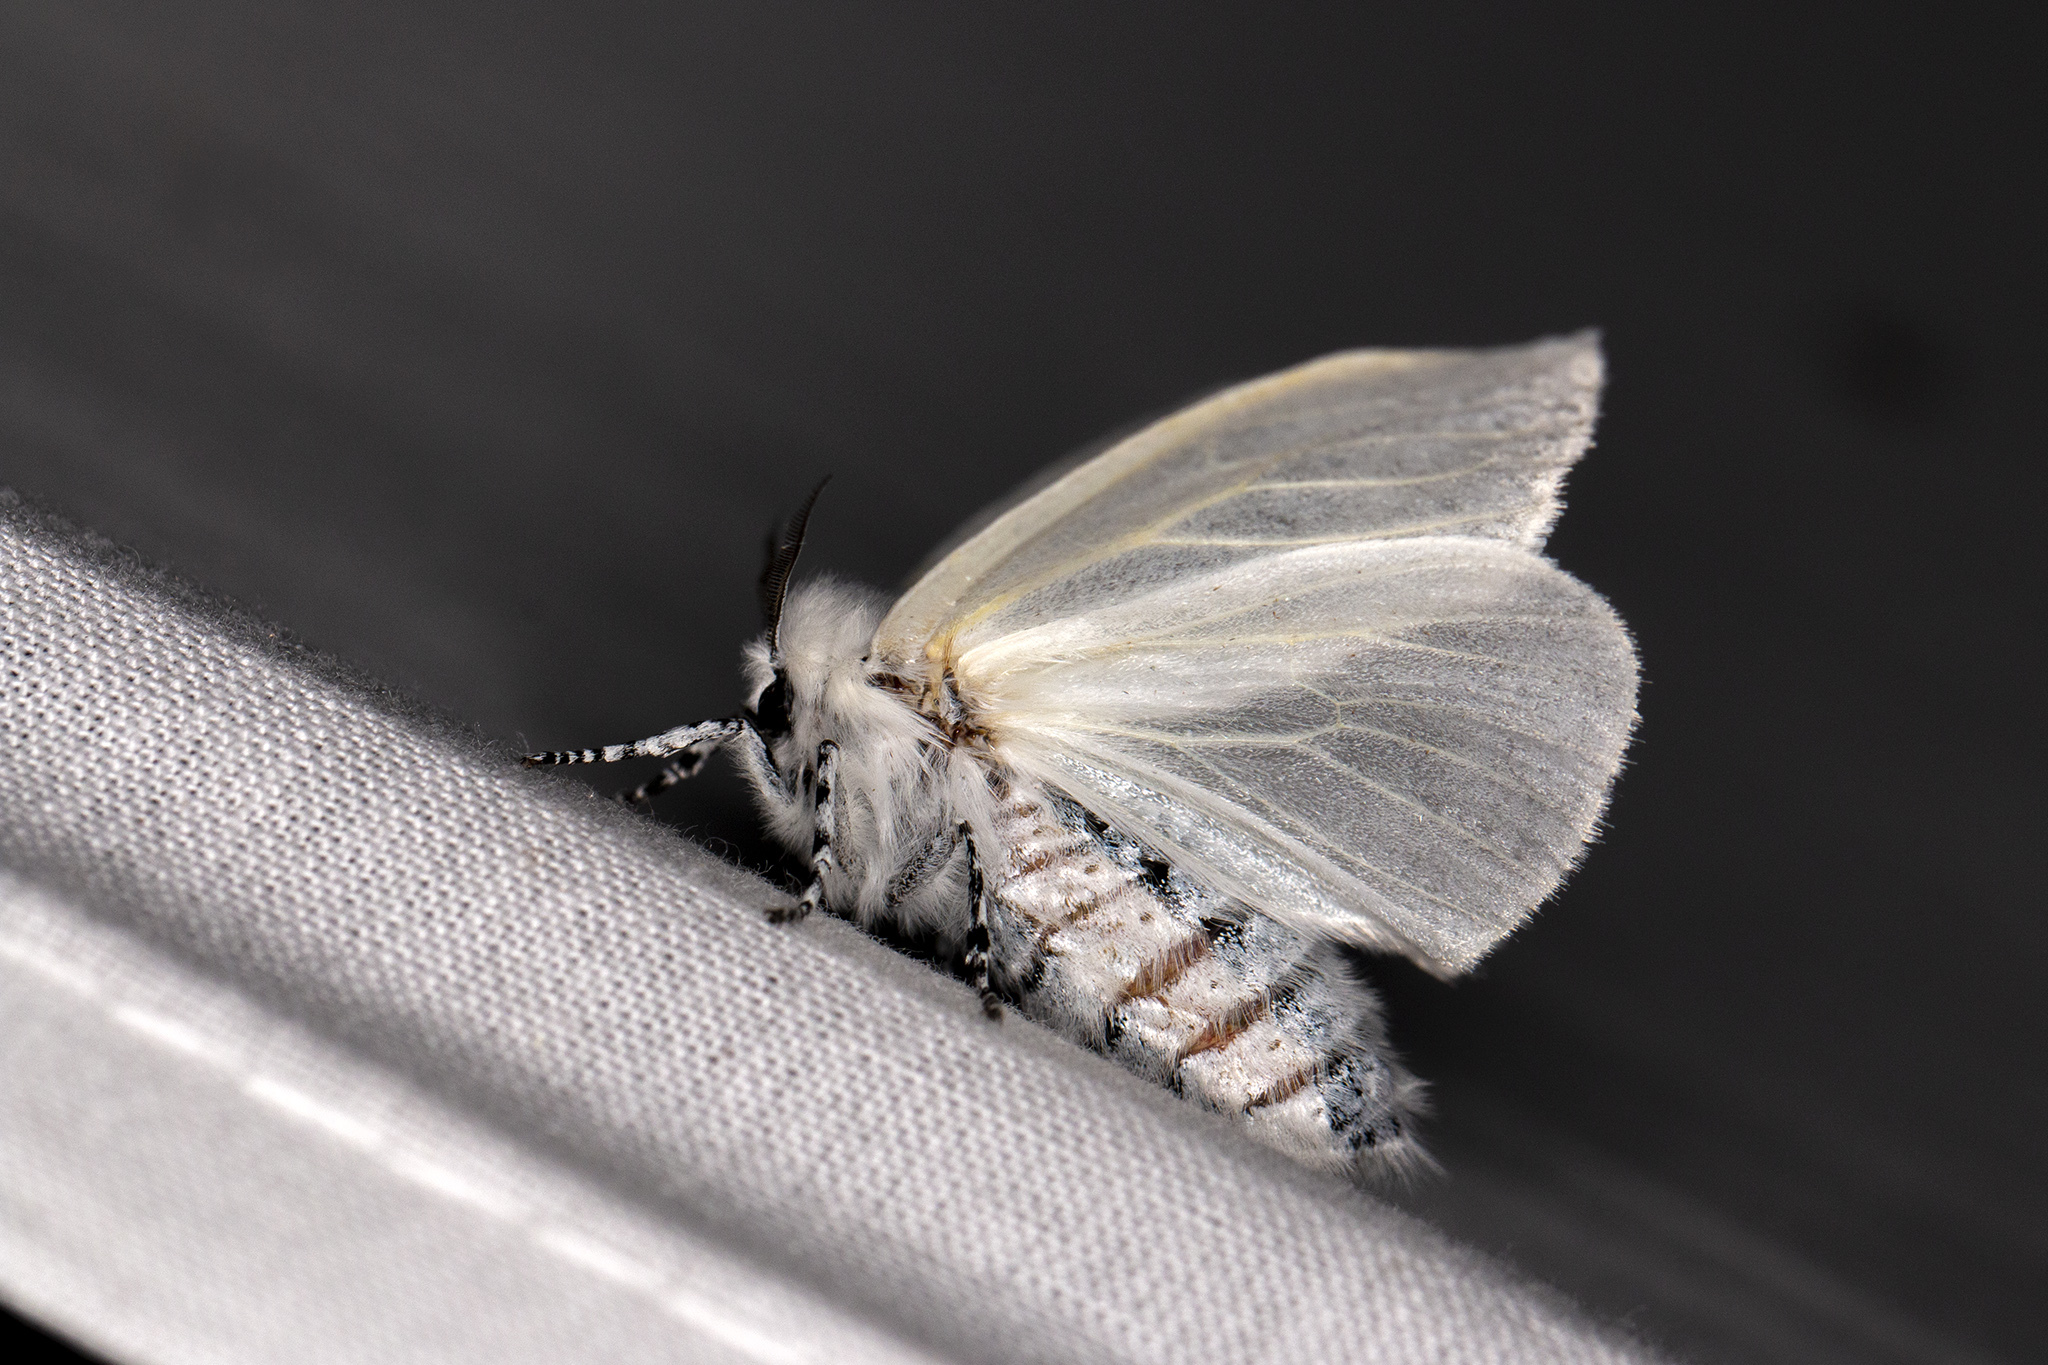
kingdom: Animalia
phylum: Arthropoda
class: Insecta
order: Lepidoptera
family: Erebidae
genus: Leucoma
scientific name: Leucoma salicis
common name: White satin moth
